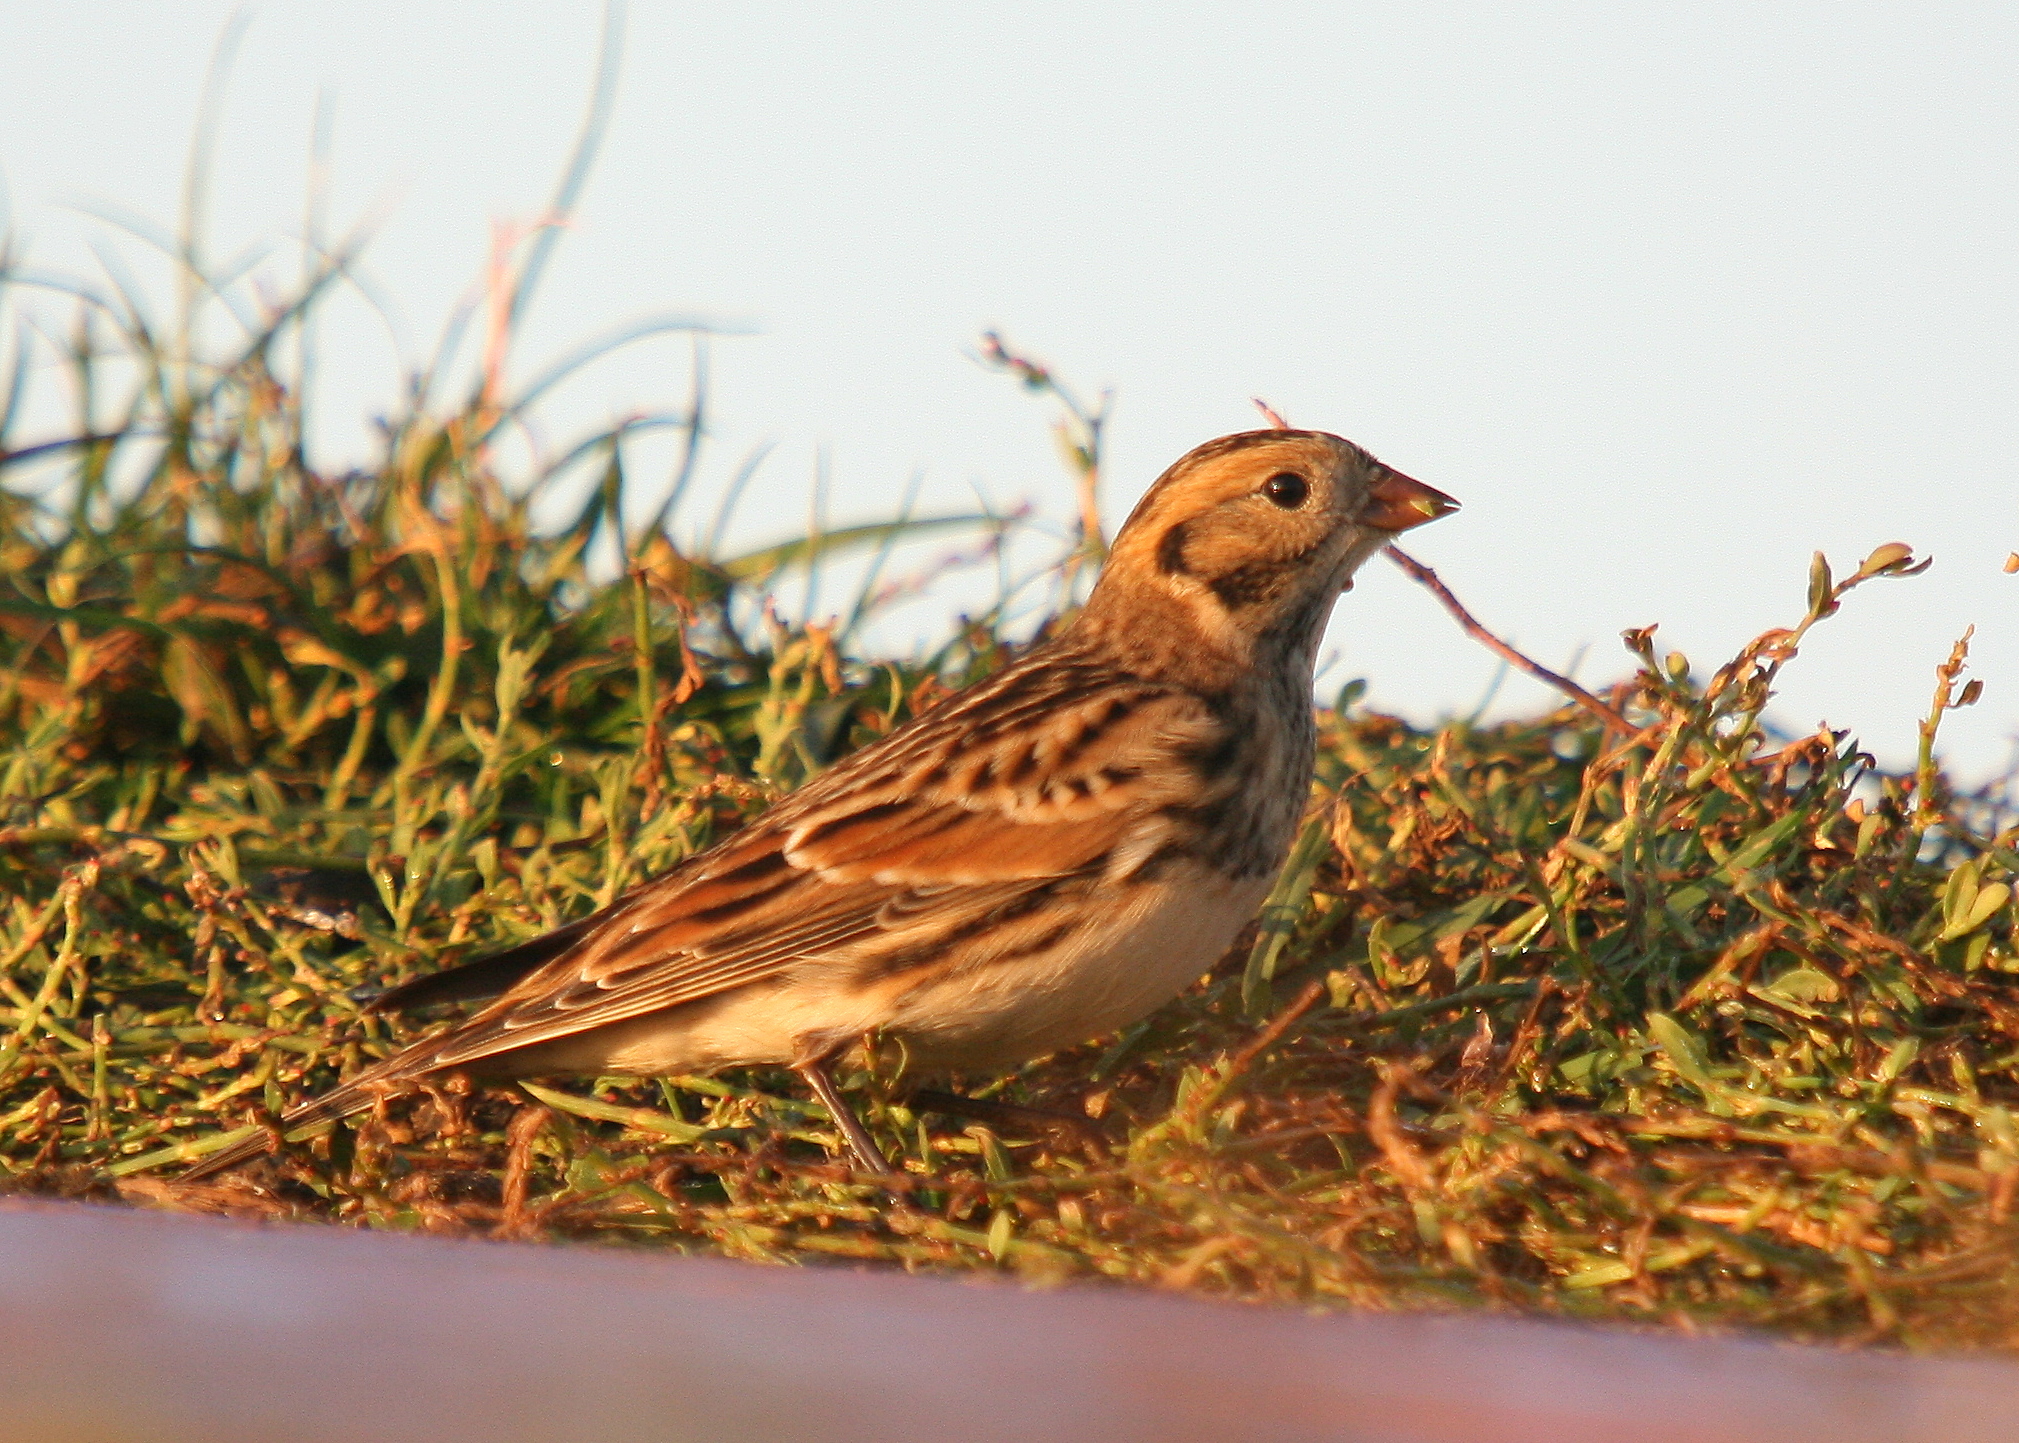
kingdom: Animalia
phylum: Chordata
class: Aves
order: Passeriformes
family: Calcariidae
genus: Calcarius
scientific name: Calcarius lapponicus
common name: Lapland longspur
